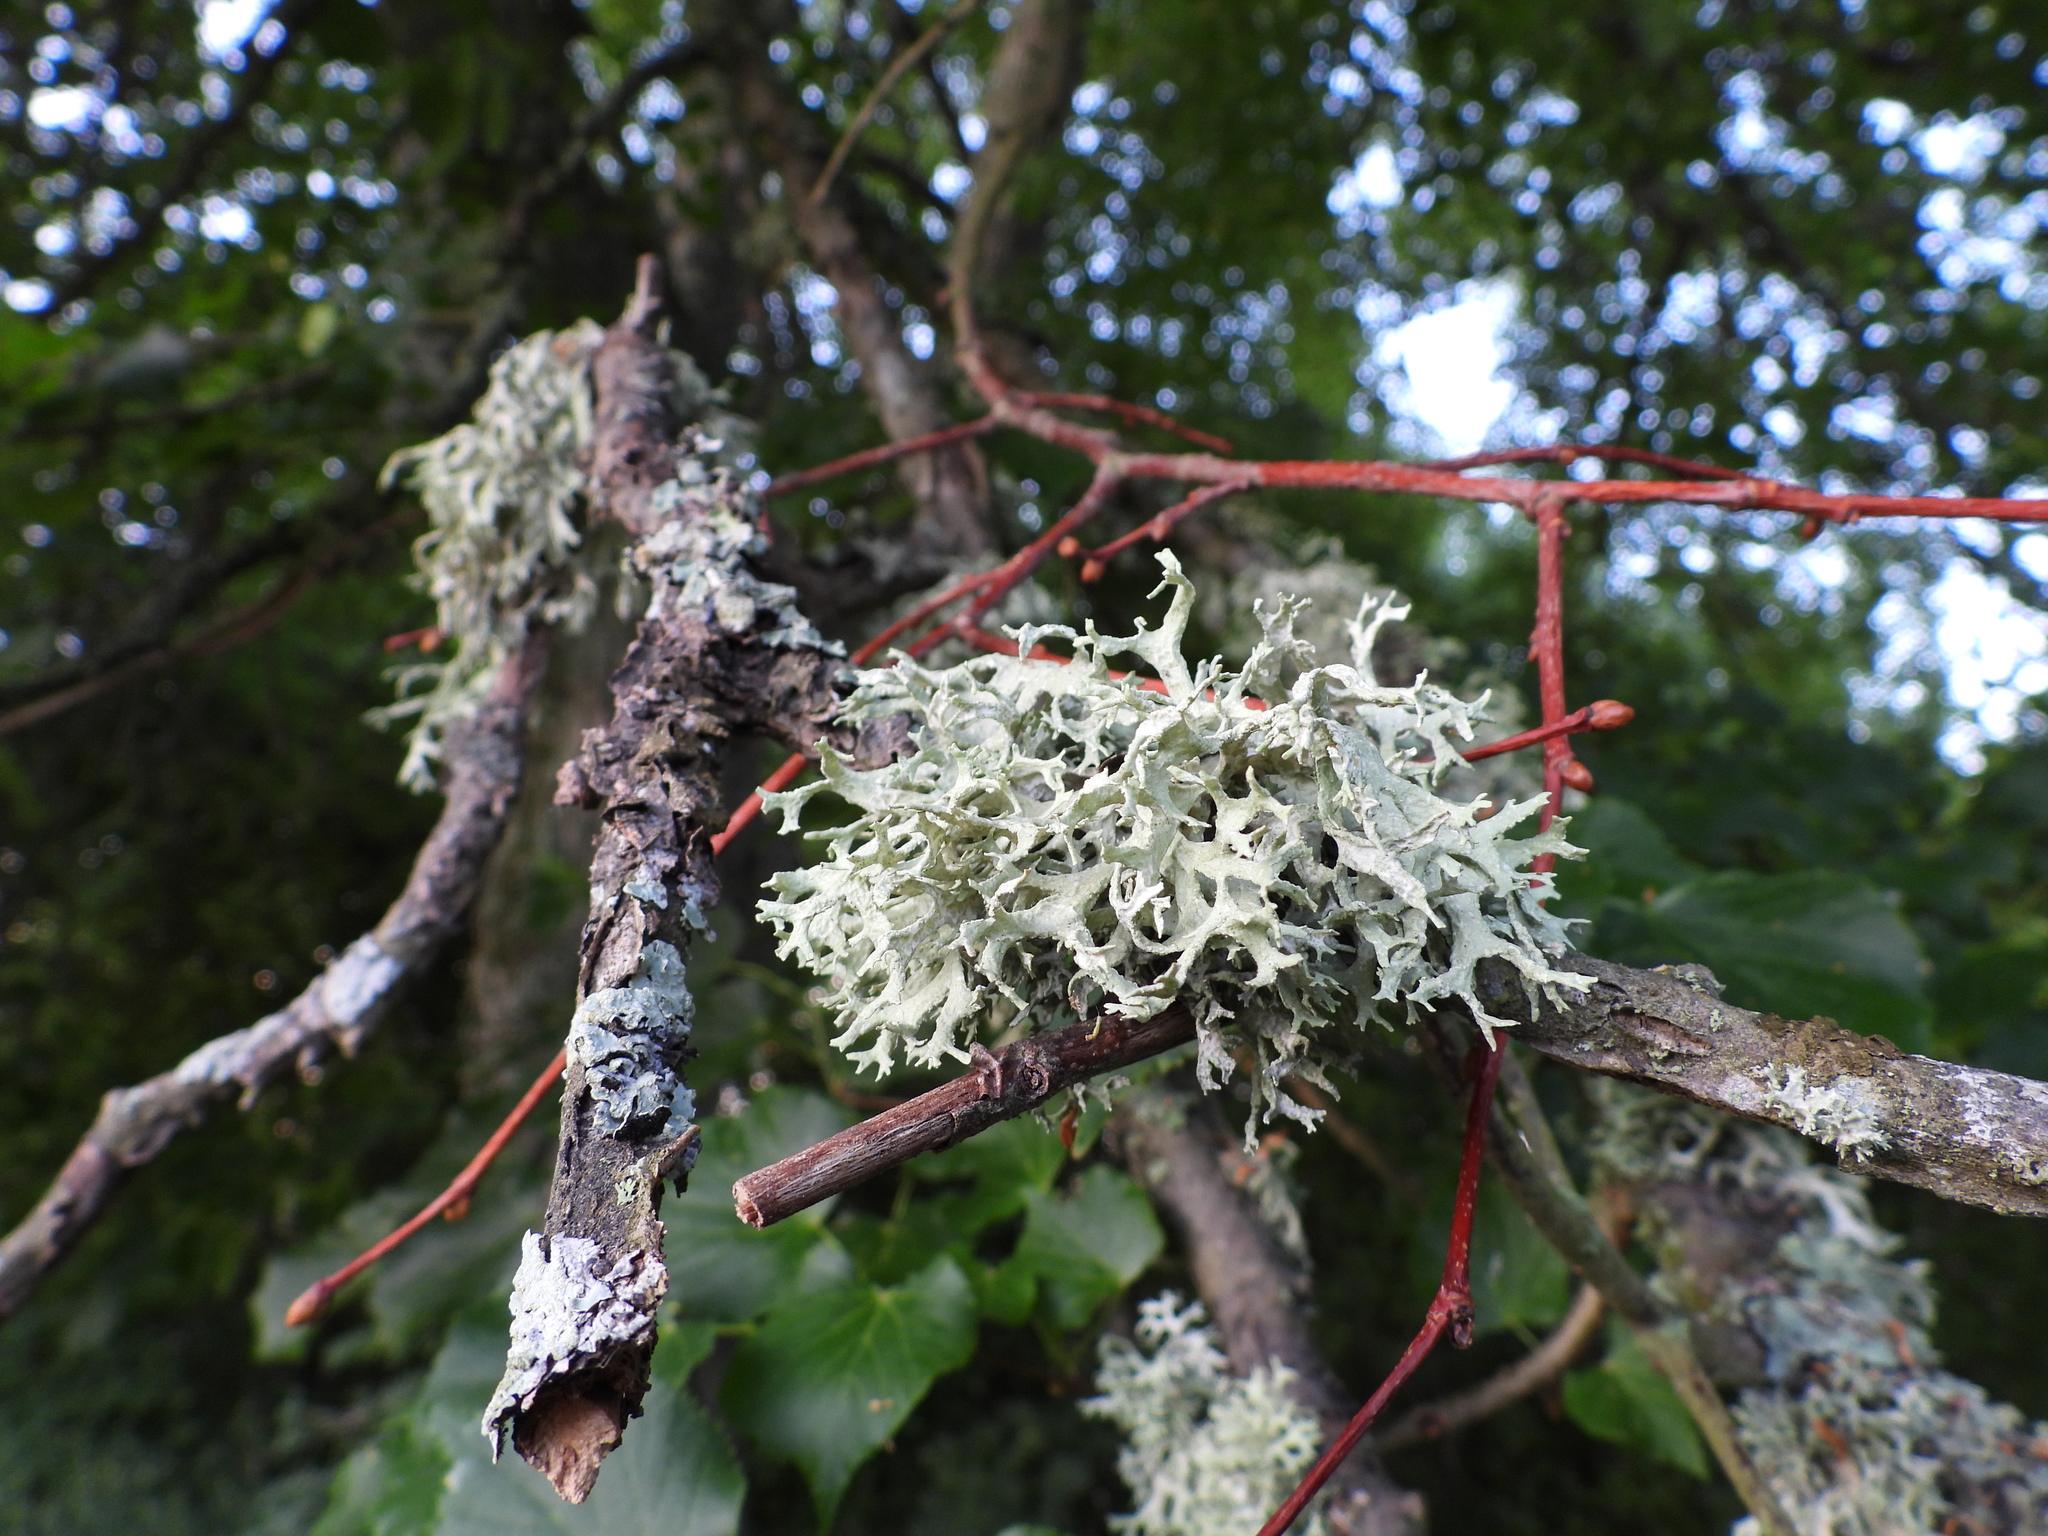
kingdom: Fungi
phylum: Ascomycota
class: Lecanoromycetes
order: Lecanorales
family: Parmeliaceae
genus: Evernia
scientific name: Evernia prunastri
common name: Oak moss
